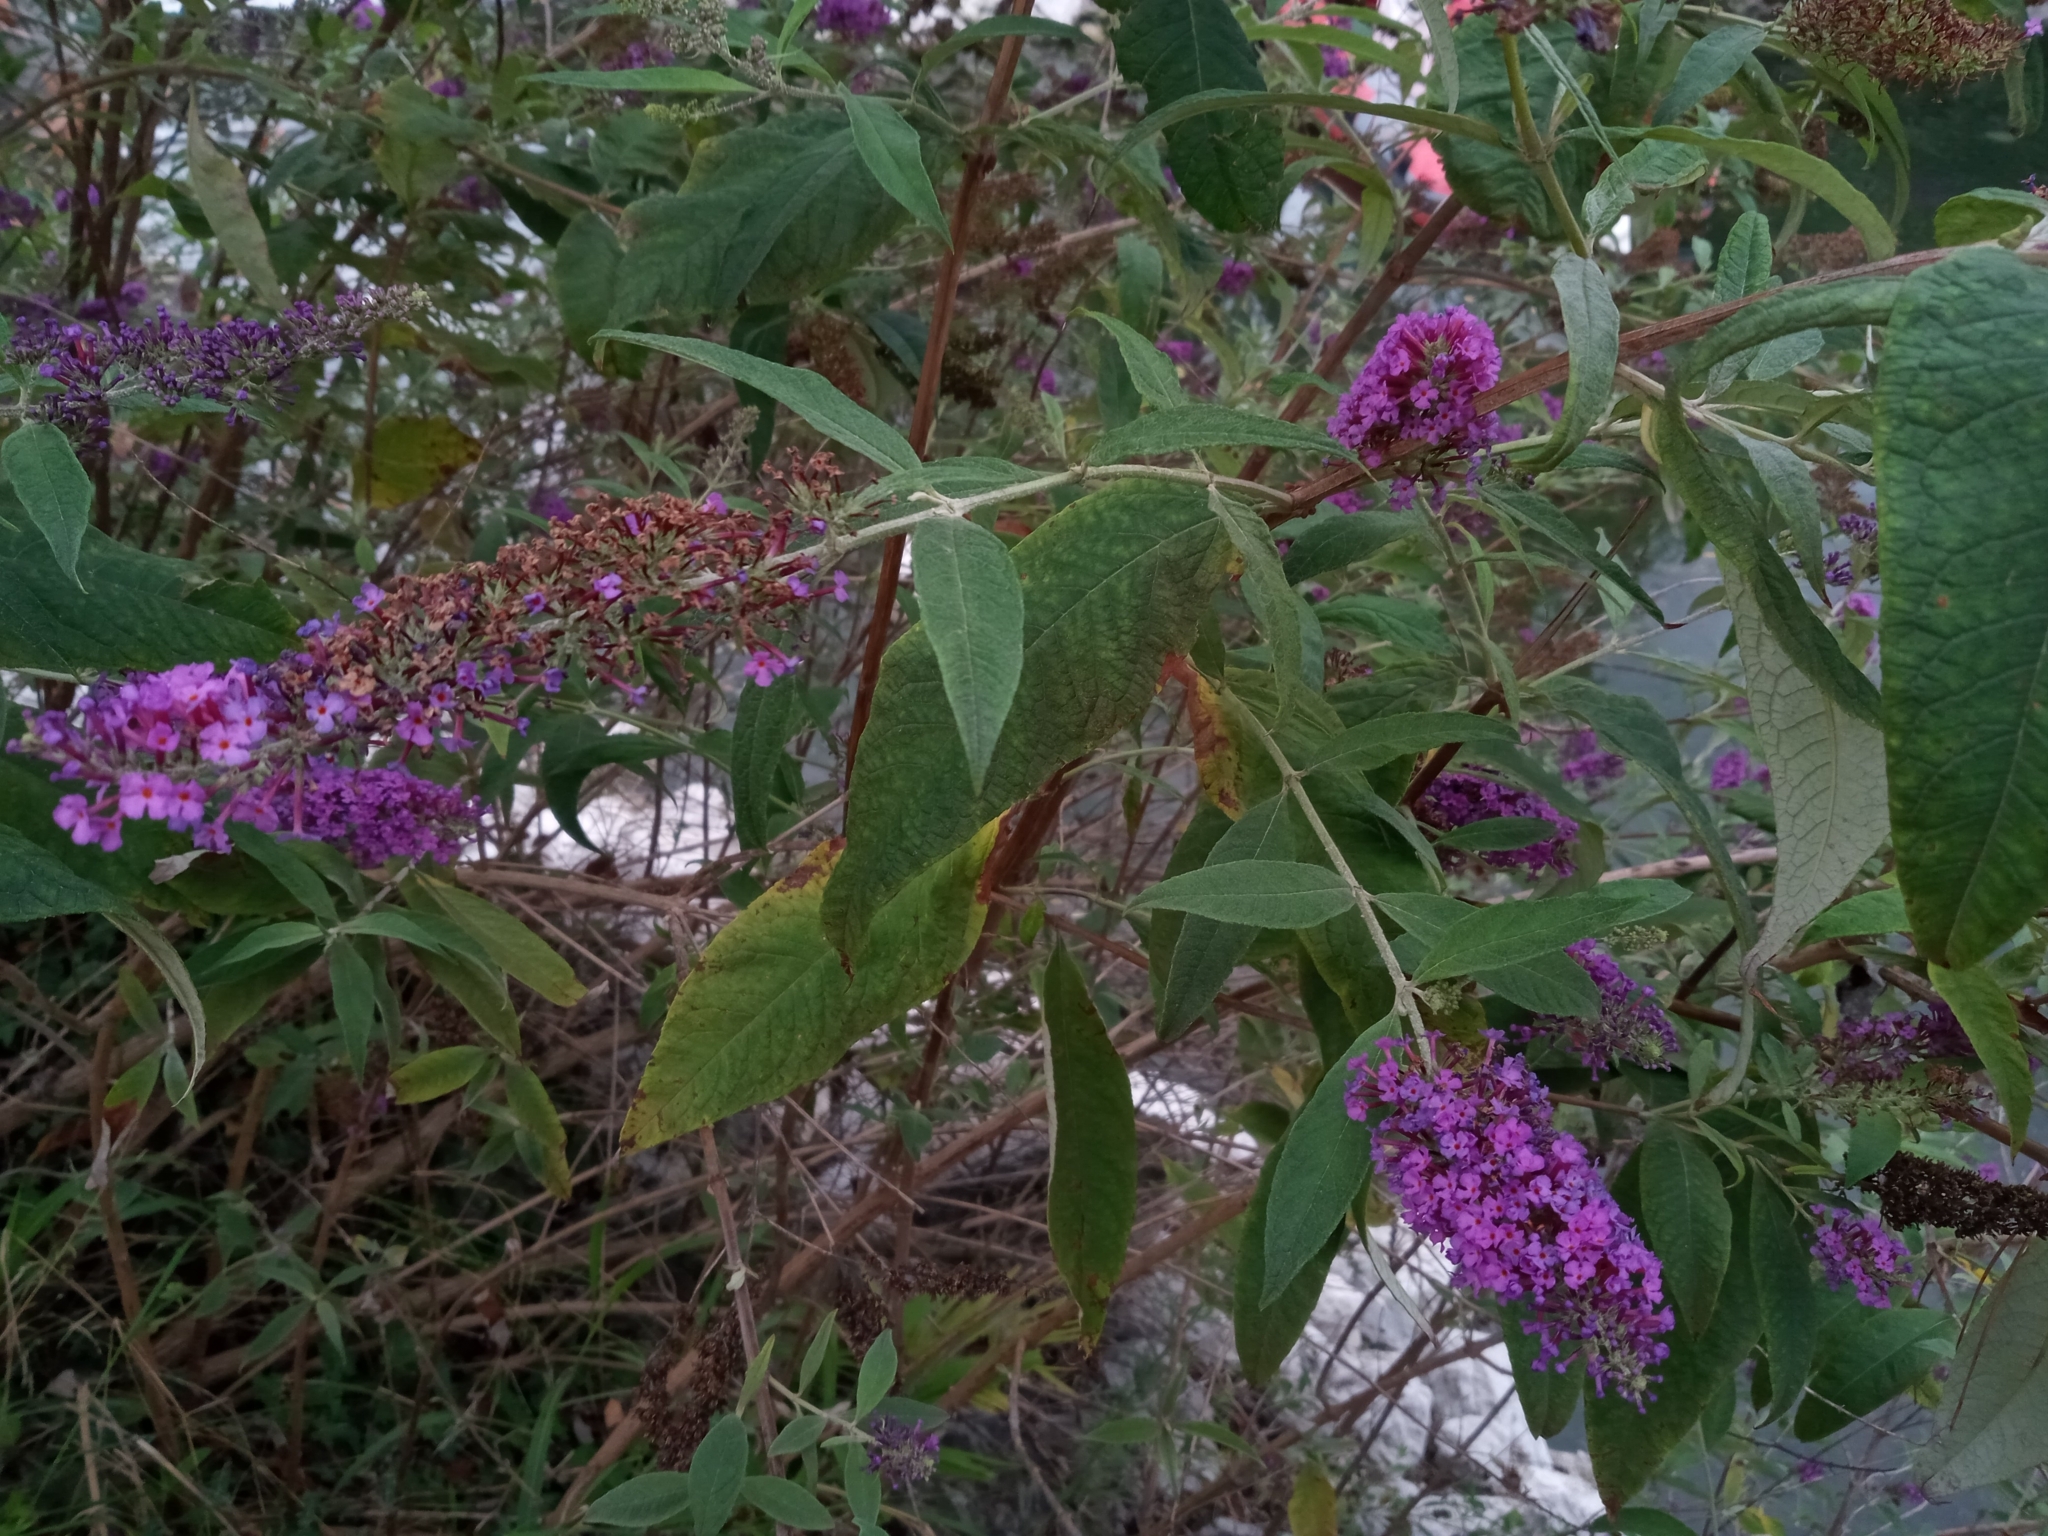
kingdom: Plantae
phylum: Tracheophyta
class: Magnoliopsida
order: Lamiales
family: Scrophulariaceae
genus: Buddleja
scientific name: Buddleja davidii
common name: Butterfly-bush
